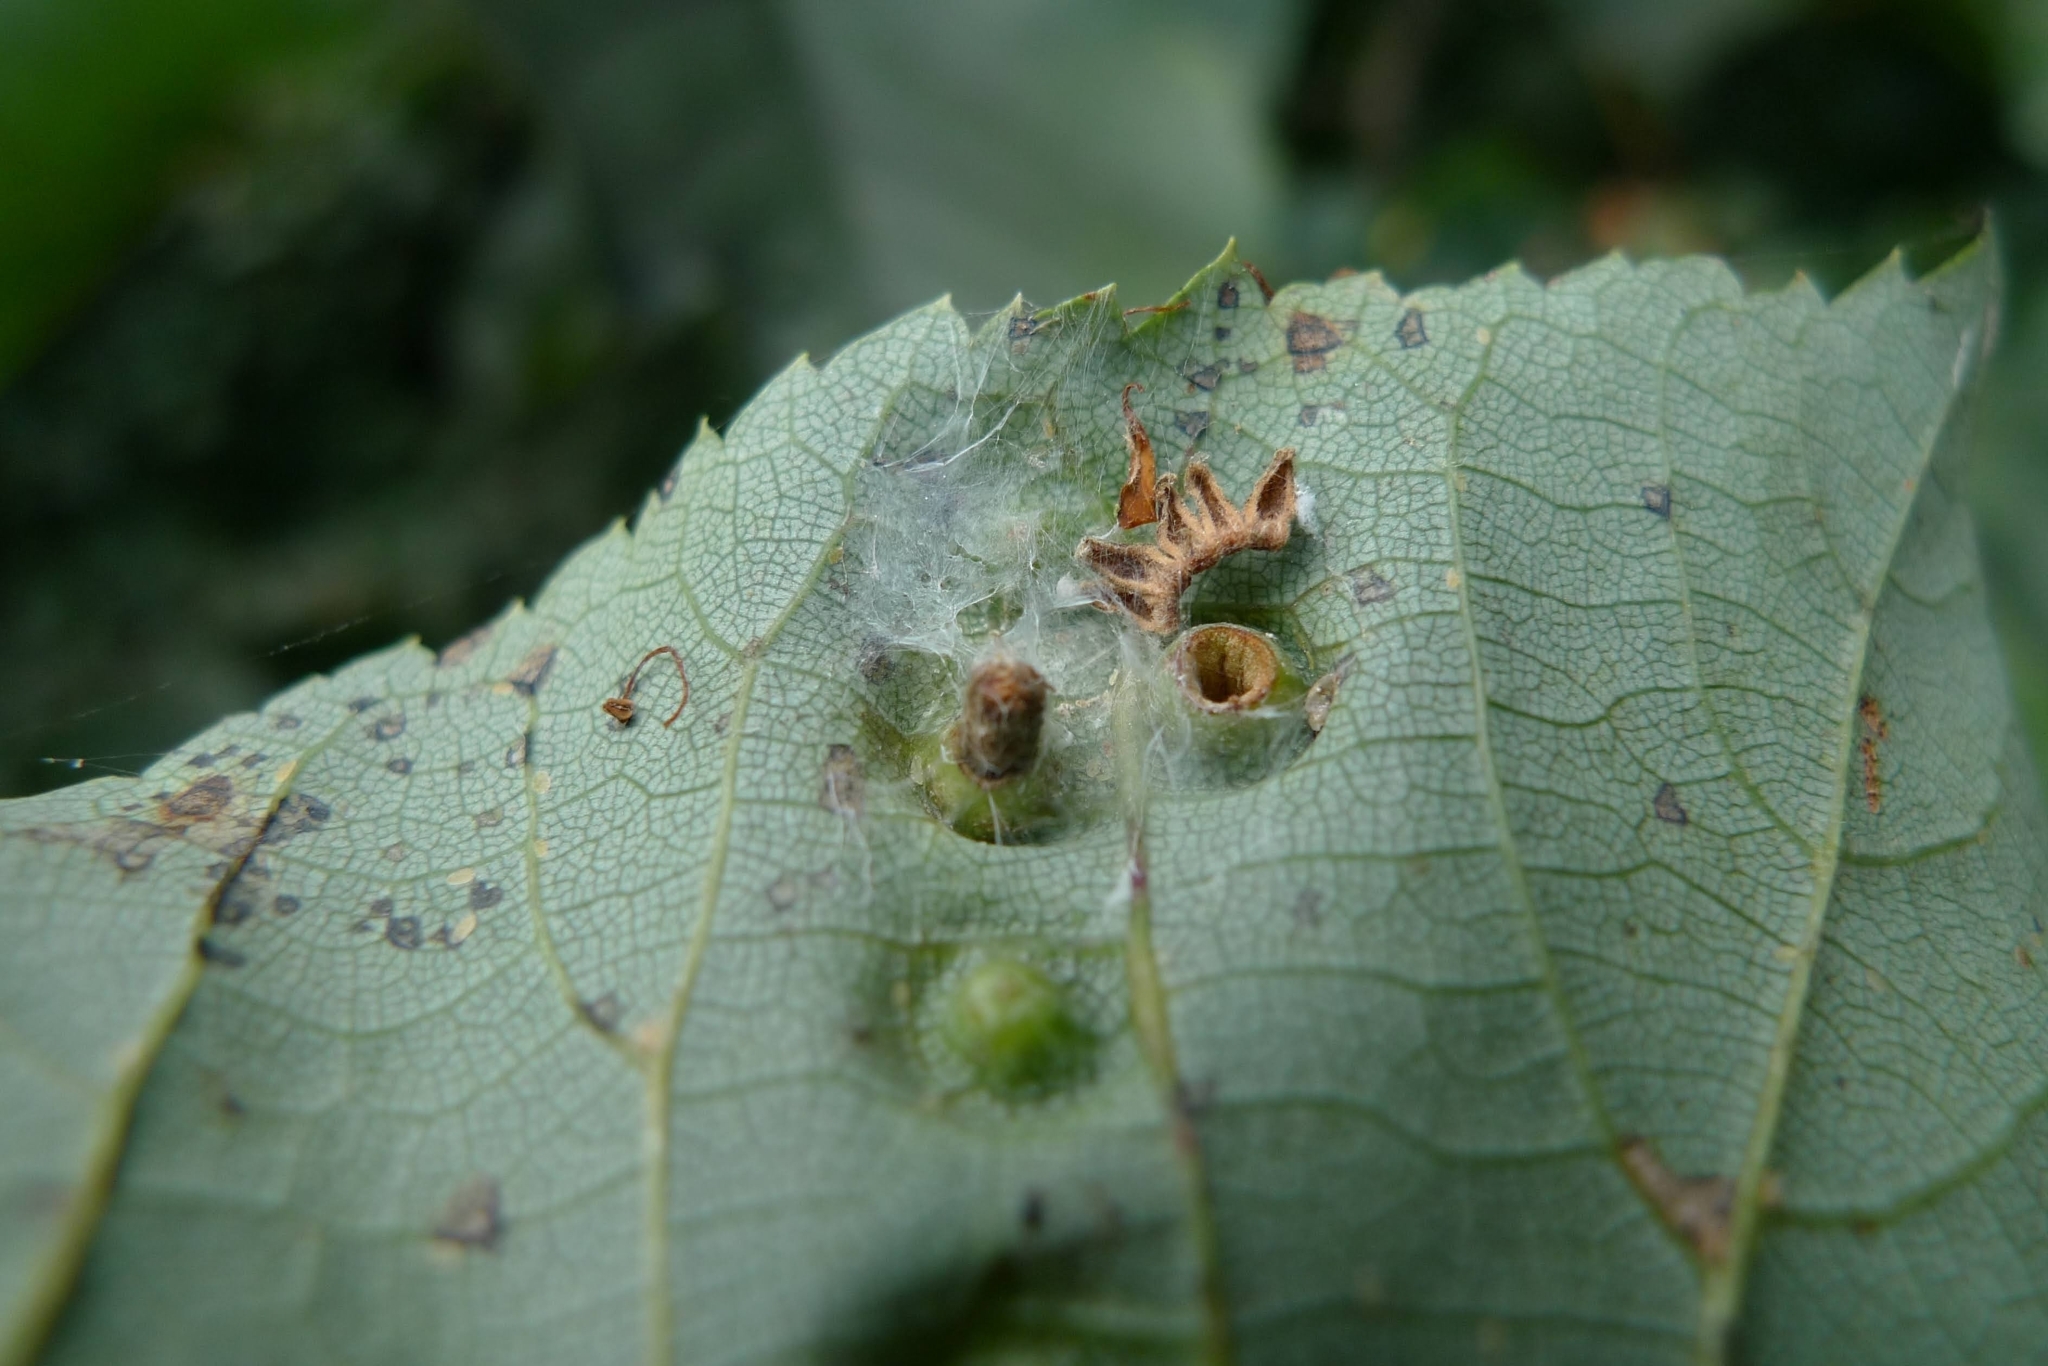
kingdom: Animalia
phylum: Arthropoda
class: Insecta
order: Diptera
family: Cecidomyiidae
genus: Didymomyia
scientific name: Didymomyia tiliacea
